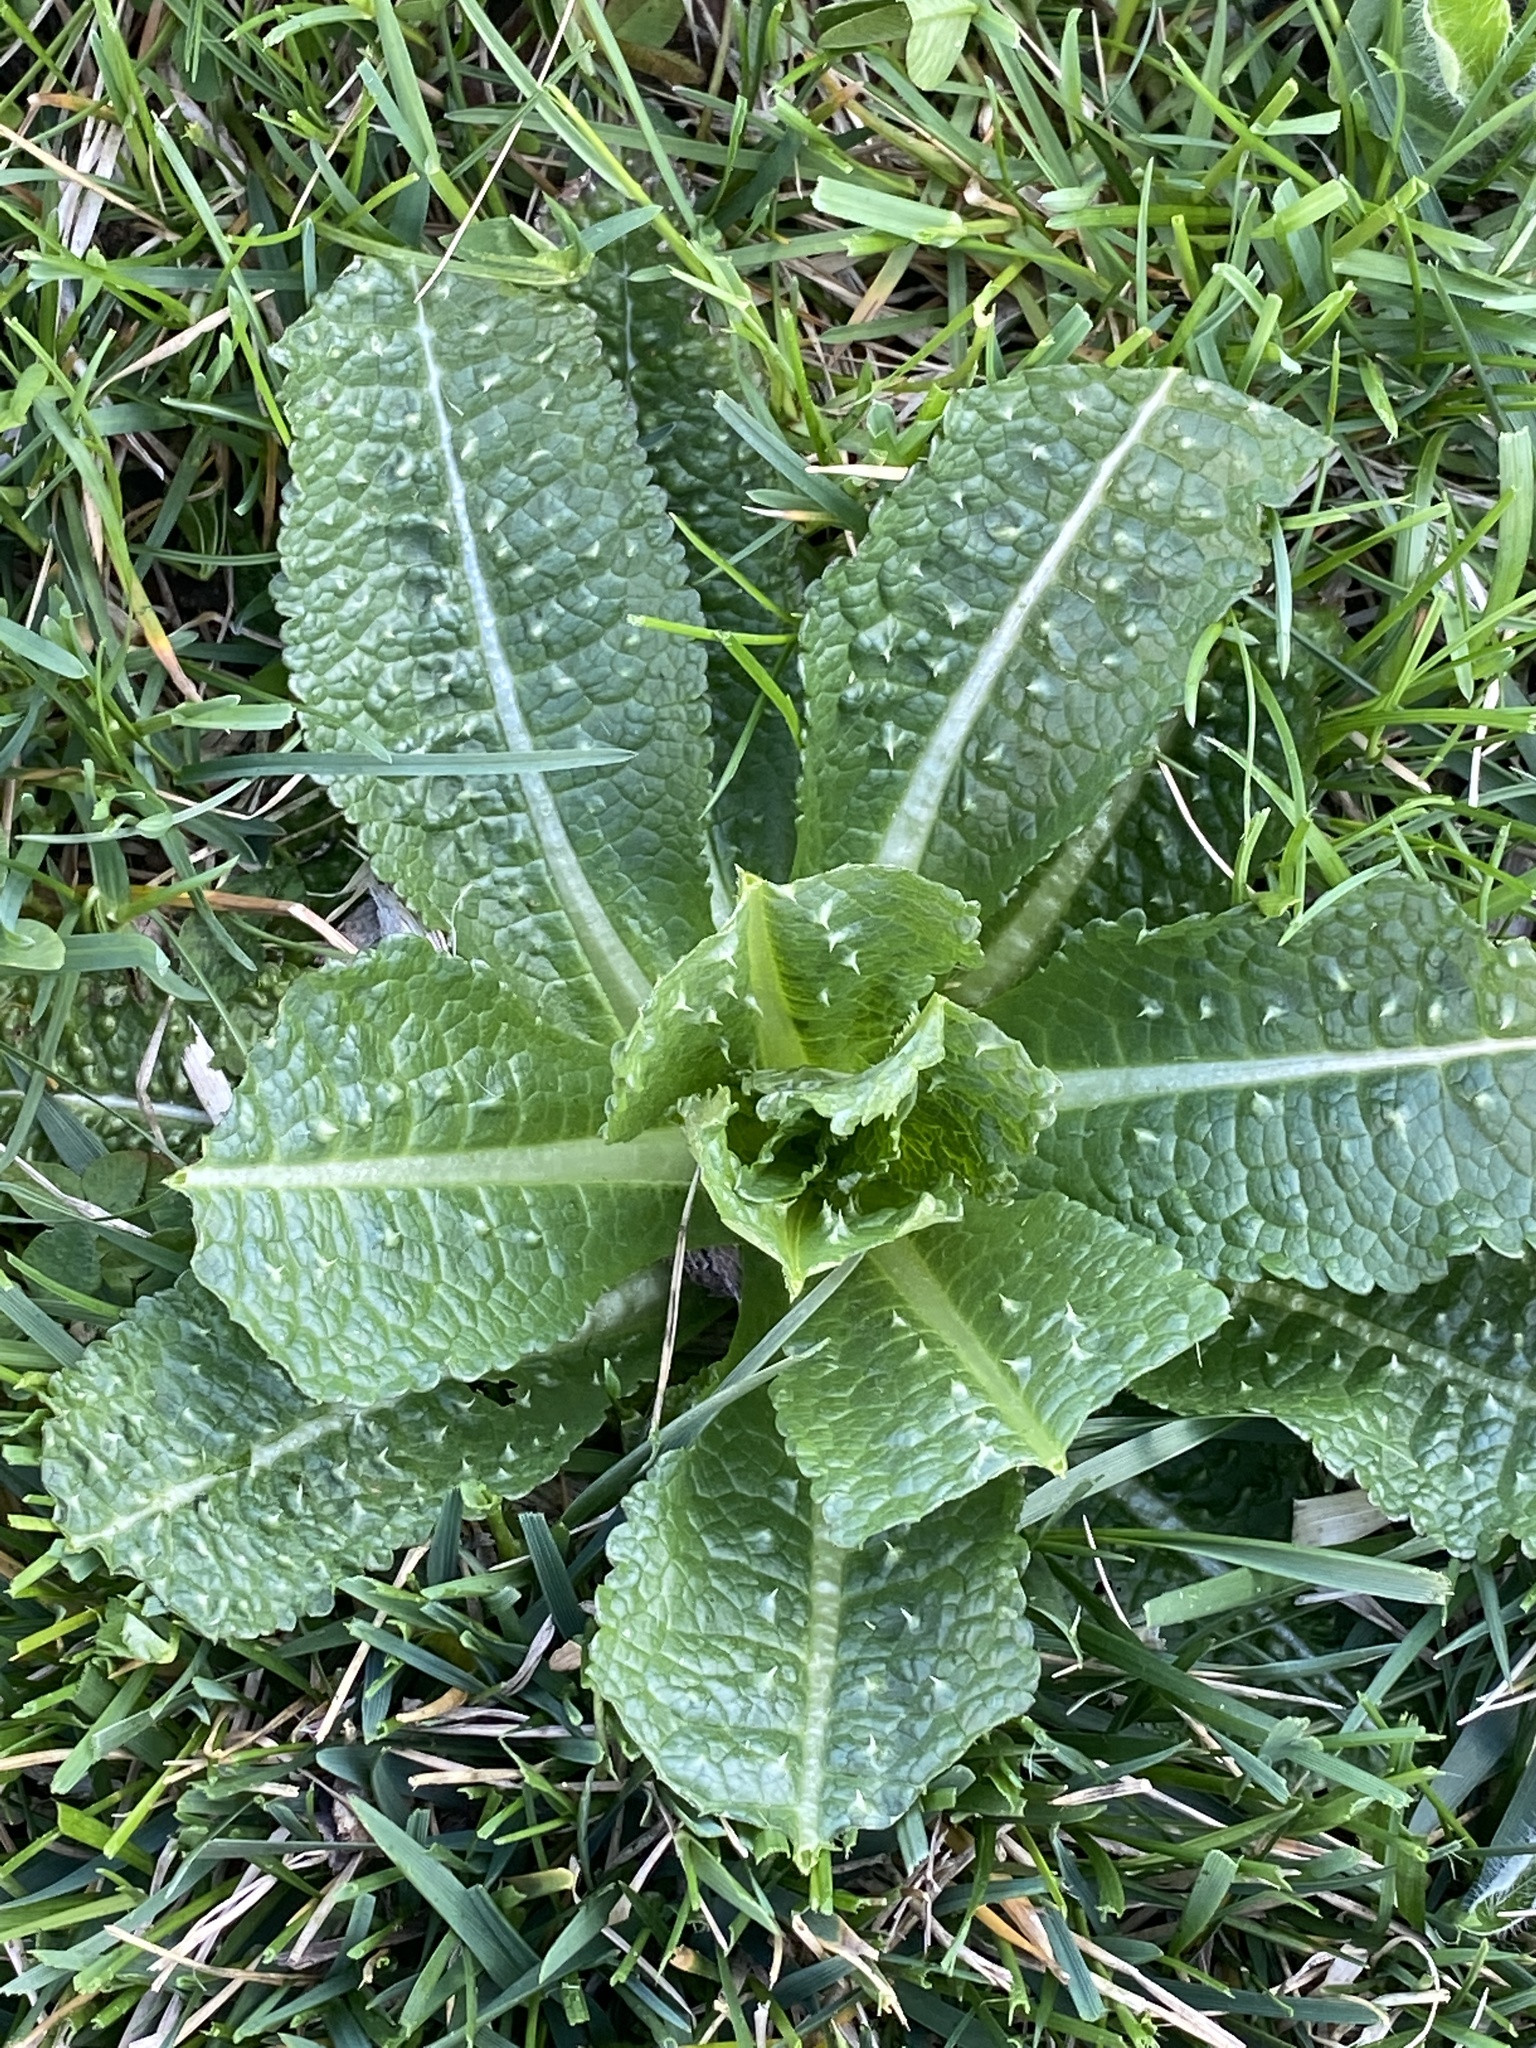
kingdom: Plantae
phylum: Tracheophyta
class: Magnoliopsida
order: Dipsacales
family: Caprifoliaceae
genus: Dipsacus
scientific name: Dipsacus fullonum
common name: Teasel
